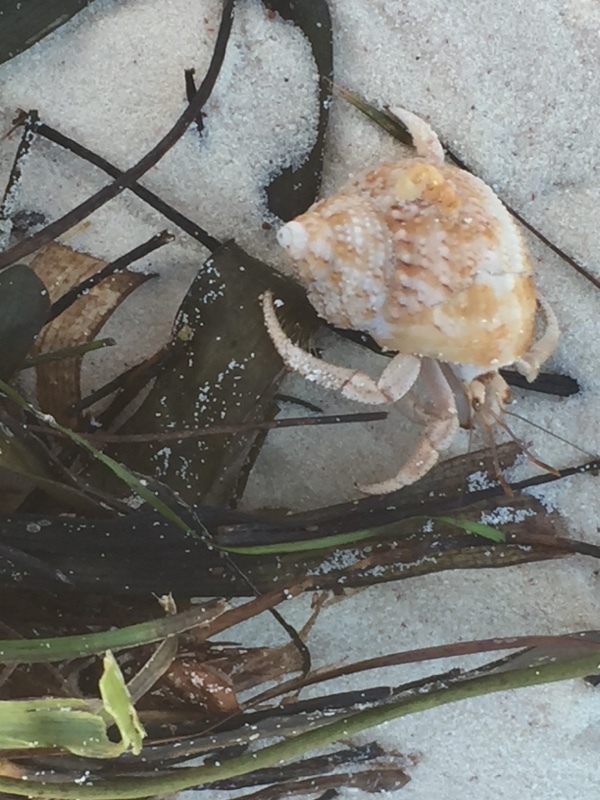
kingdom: Animalia
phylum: Mollusca
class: Gastropoda
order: Trochida
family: Turbinidae
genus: Turbo
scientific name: Turbo castanea
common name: Chestnut turban
